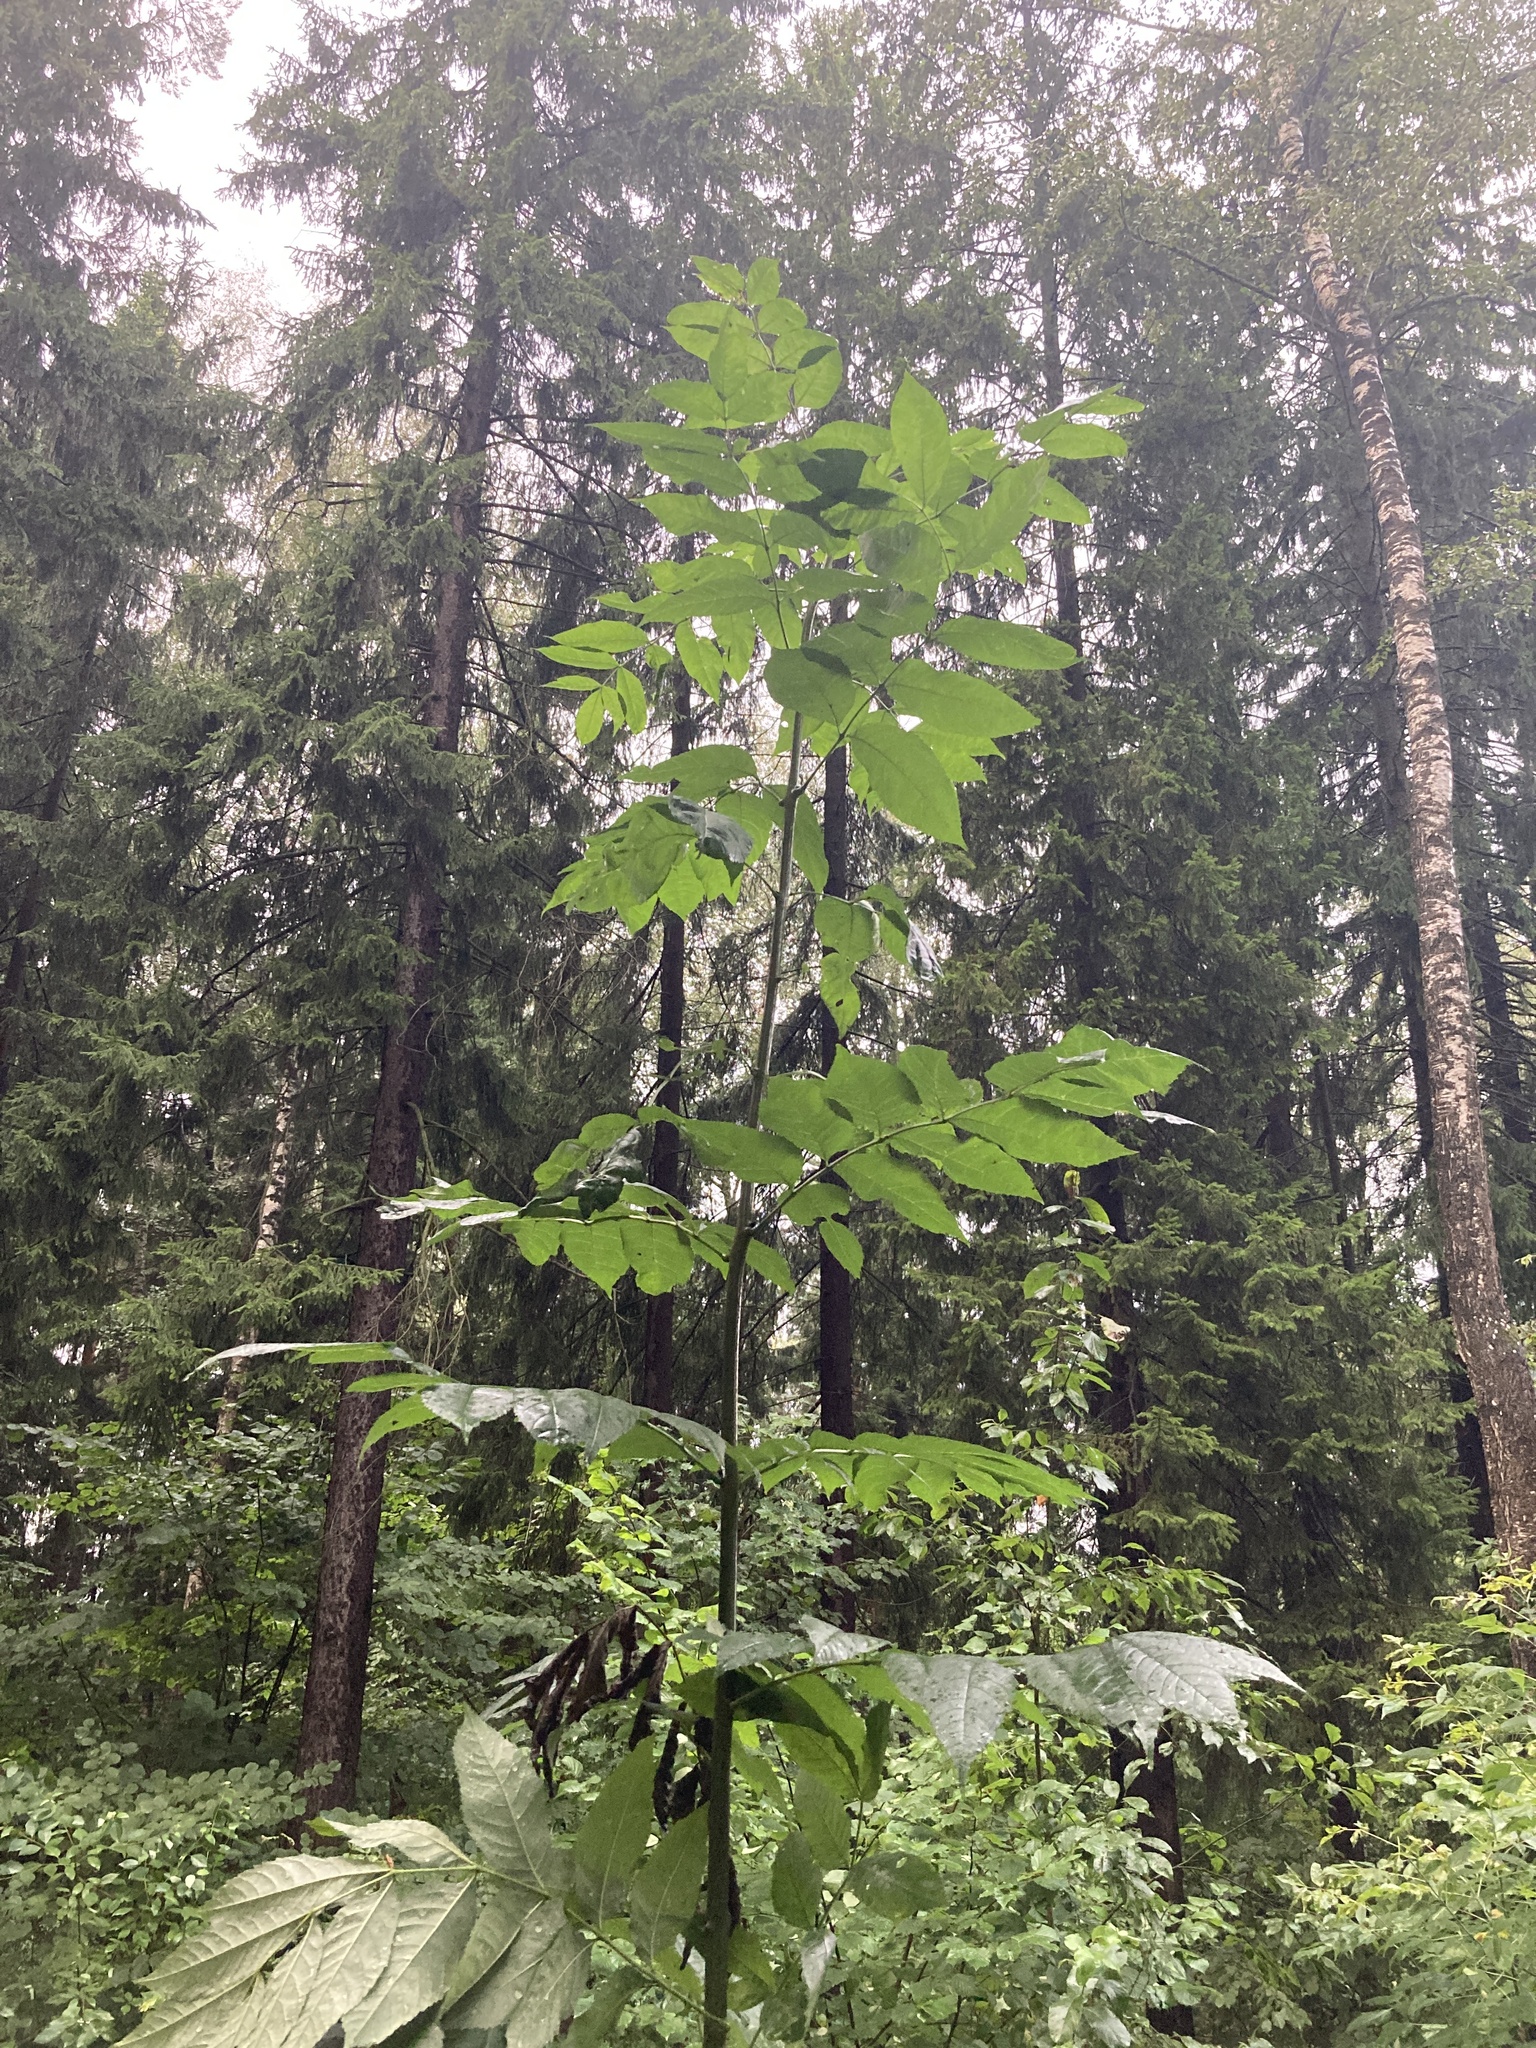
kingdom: Plantae
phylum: Tracheophyta
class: Magnoliopsida
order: Lamiales
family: Oleaceae
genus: Fraxinus
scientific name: Fraxinus excelsior
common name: European ash
